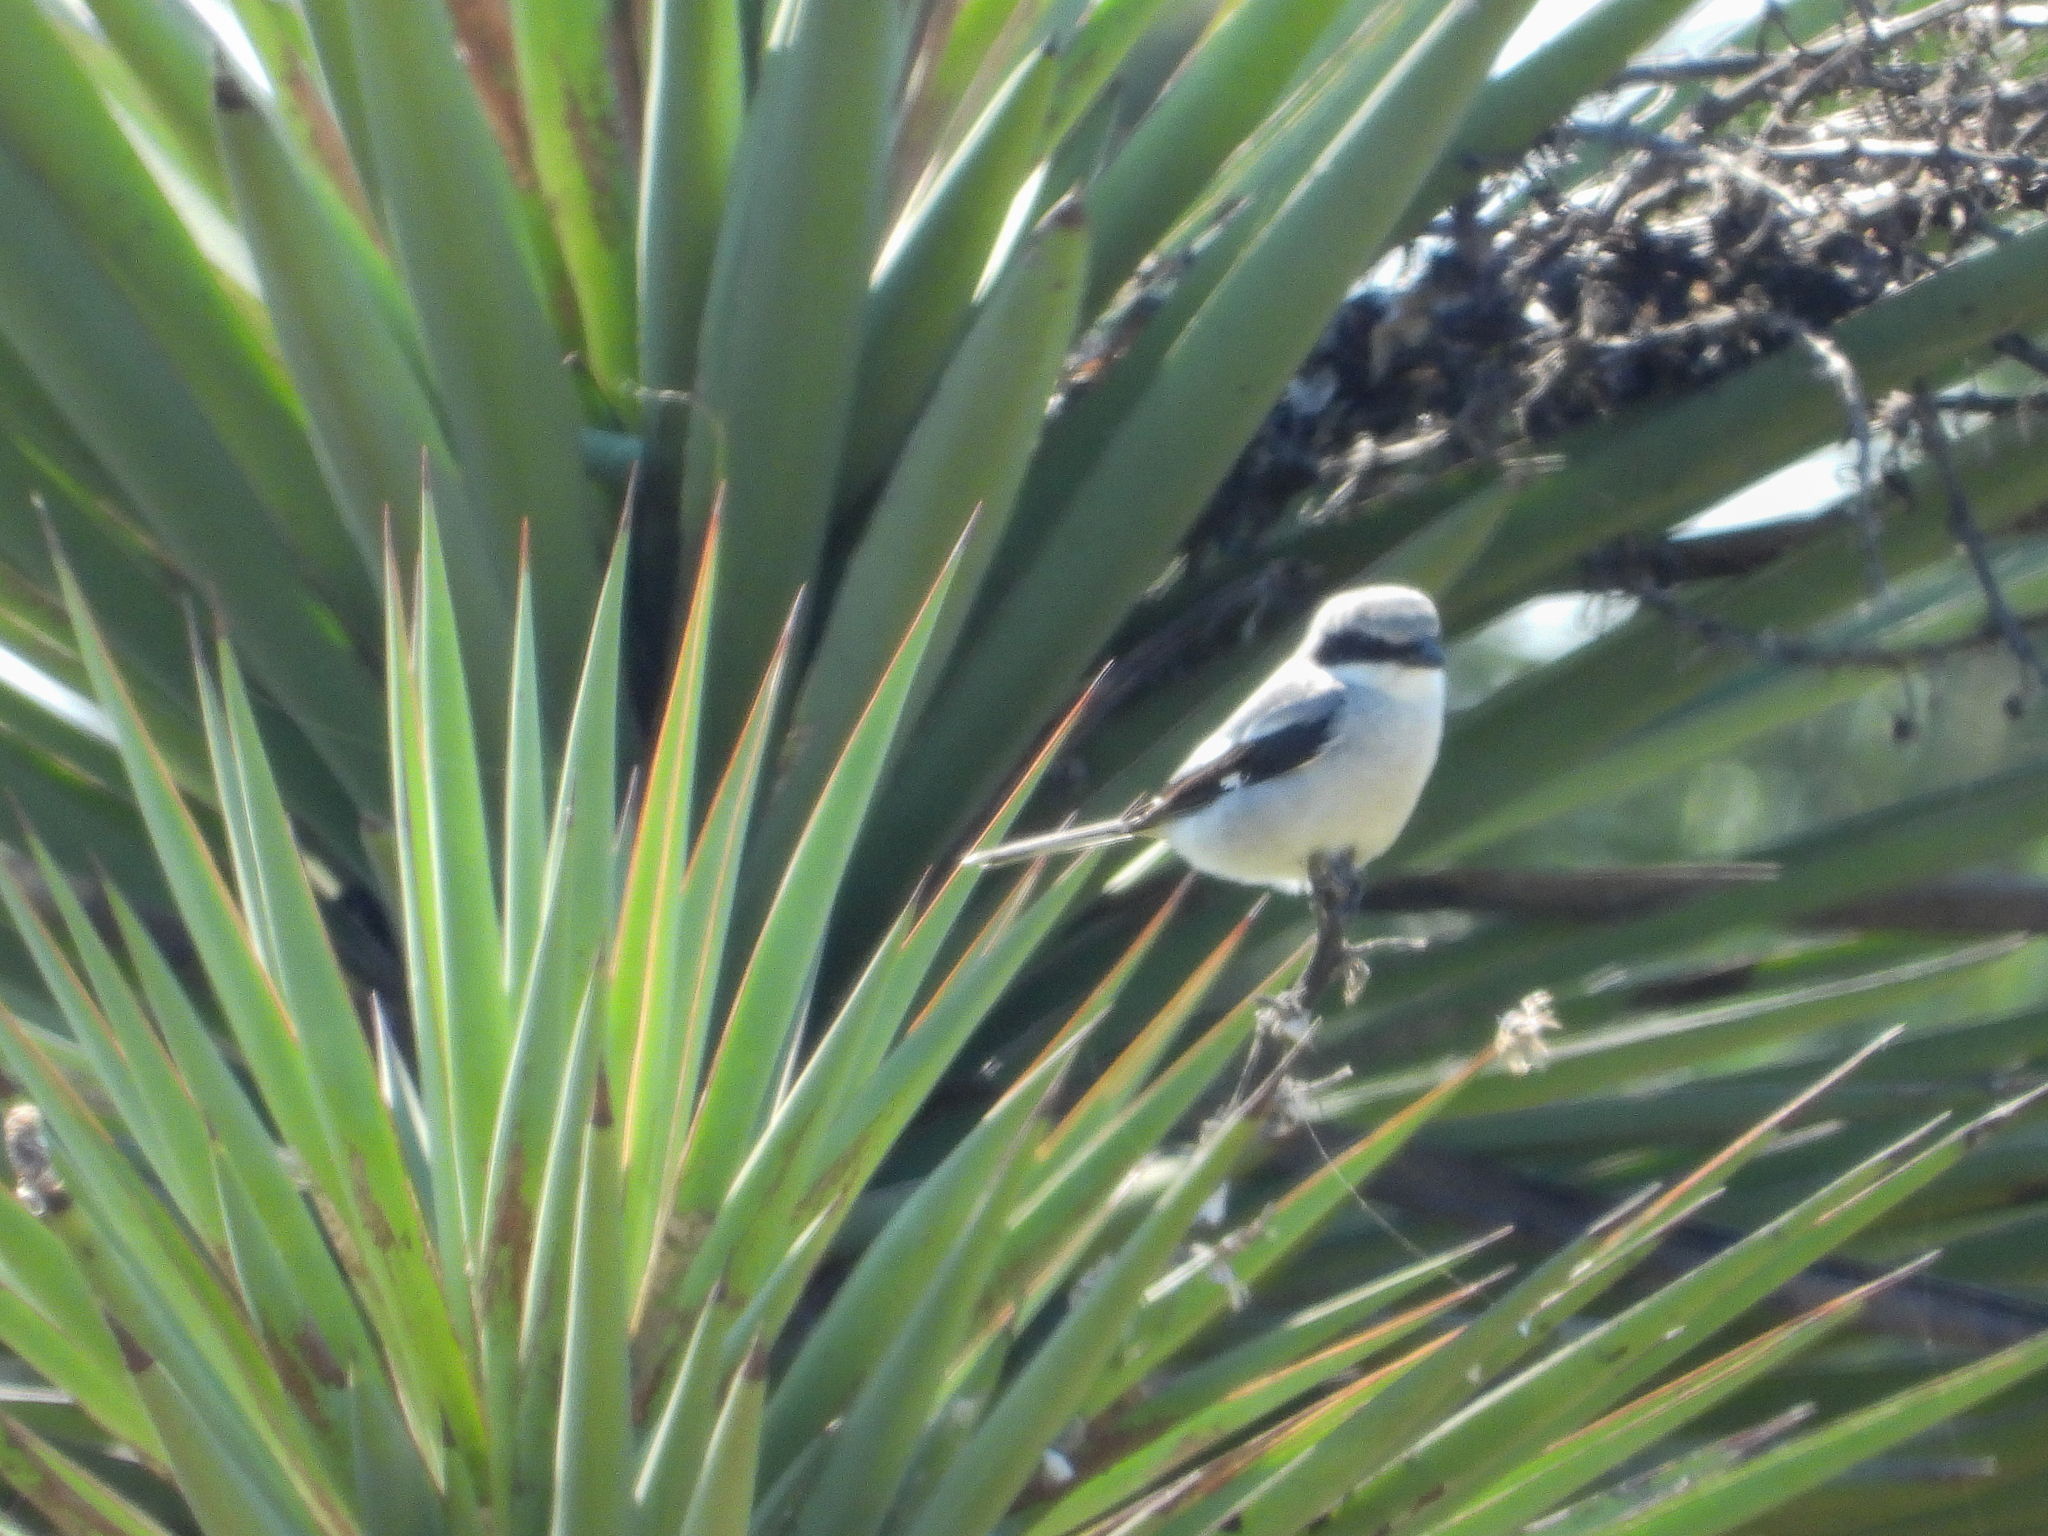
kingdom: Animalia
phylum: Chordata
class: Aves
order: Passeriformes
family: Laniidae
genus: Lanius
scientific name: Lanius ludovicianus
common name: Loggerhead shrike
